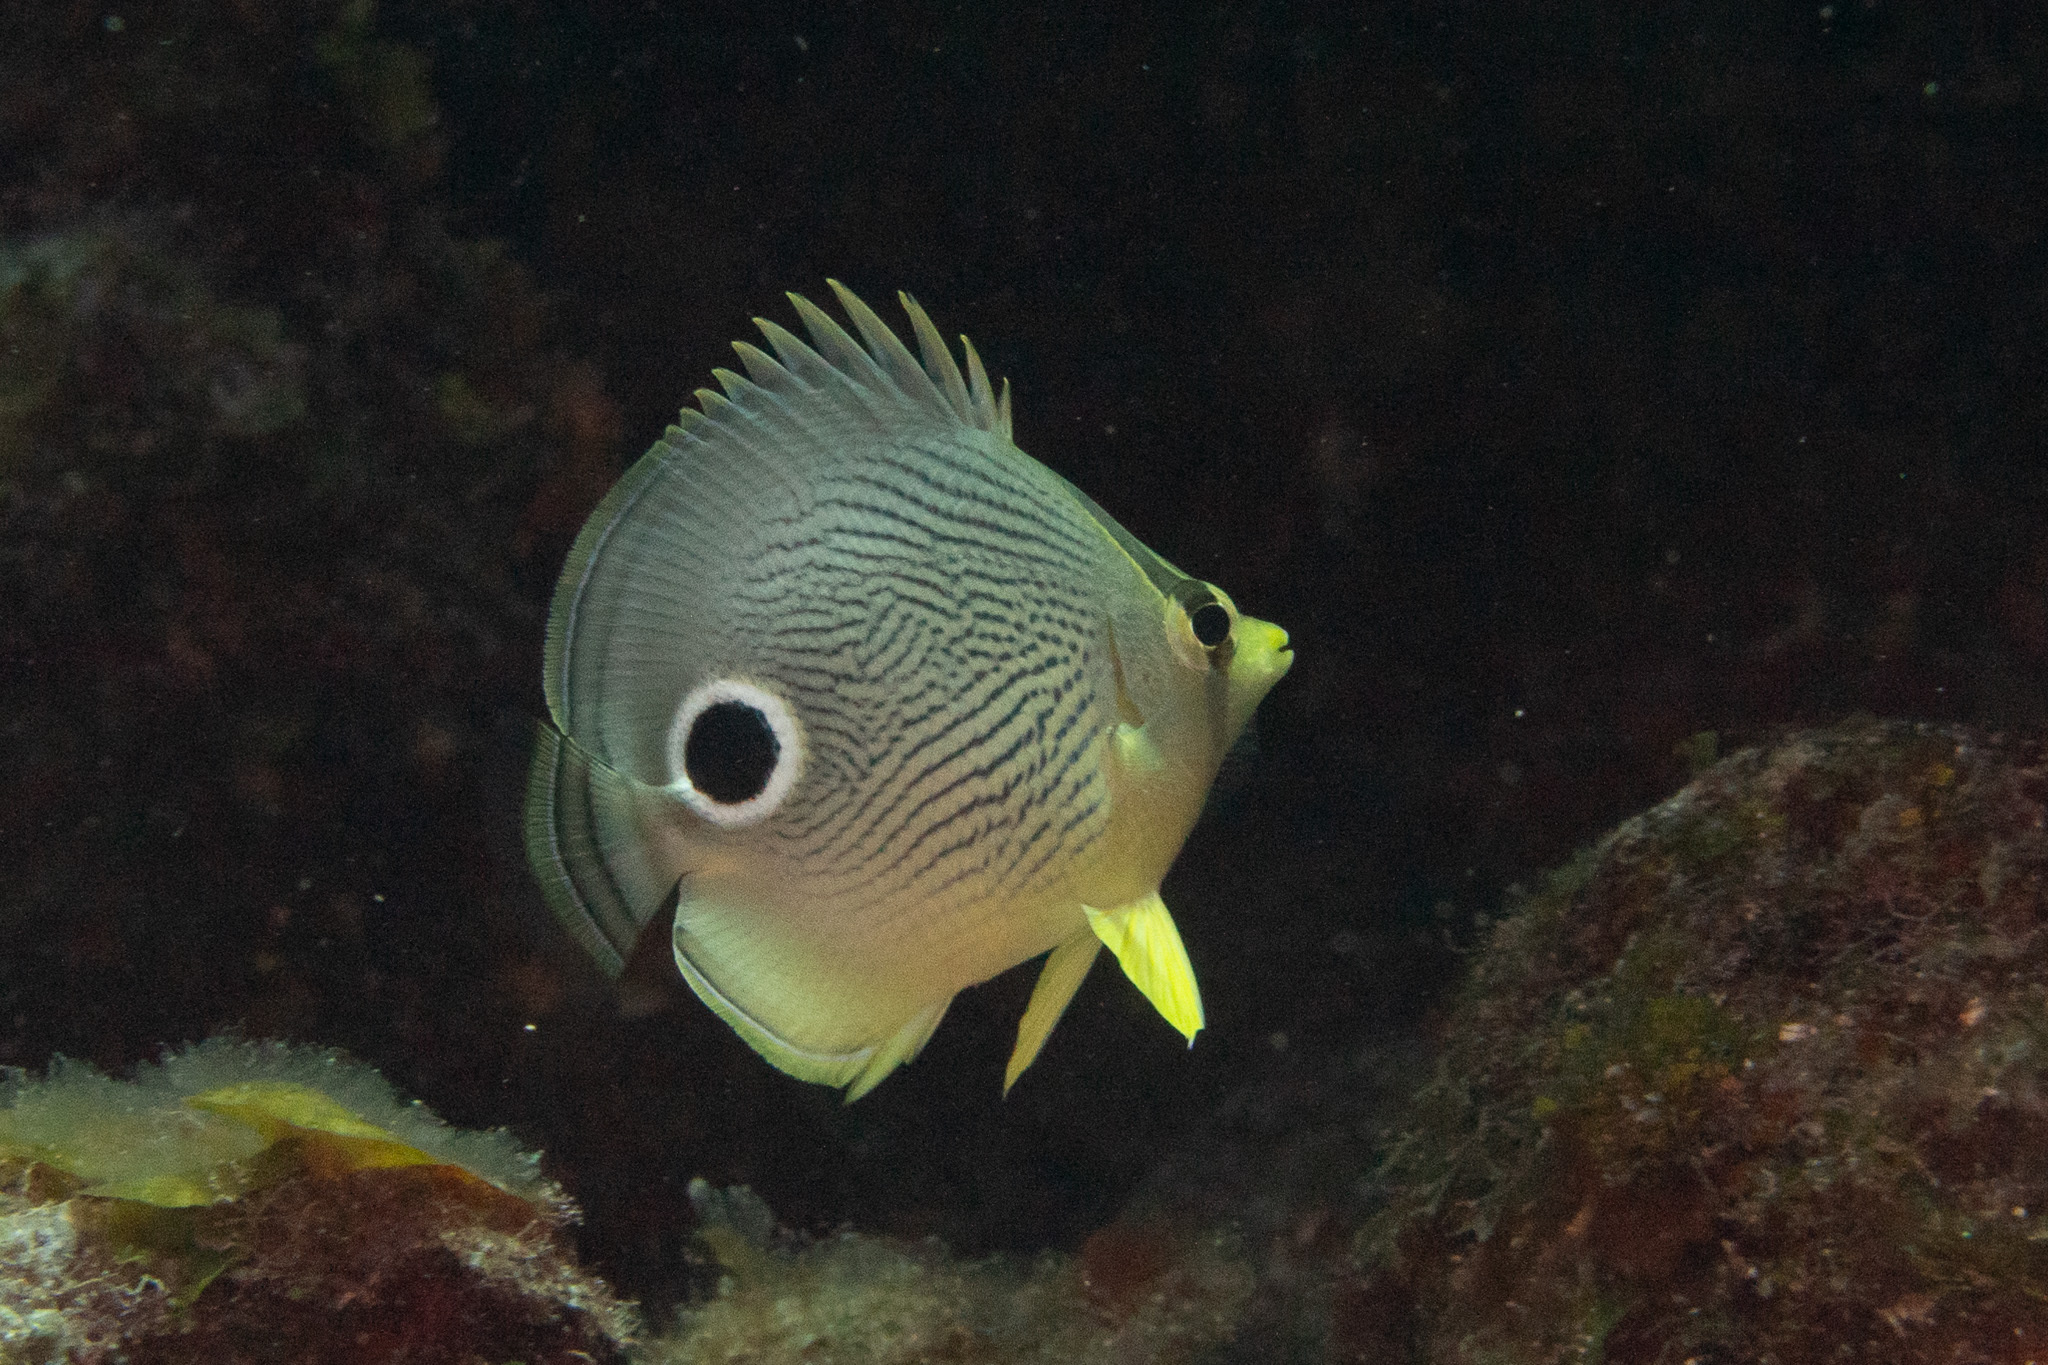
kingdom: Animalia
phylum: Chordata
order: Perciformes
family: Chaetodontidae
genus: Chaetodon
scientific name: Chaetodon capistratus
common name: Kete
